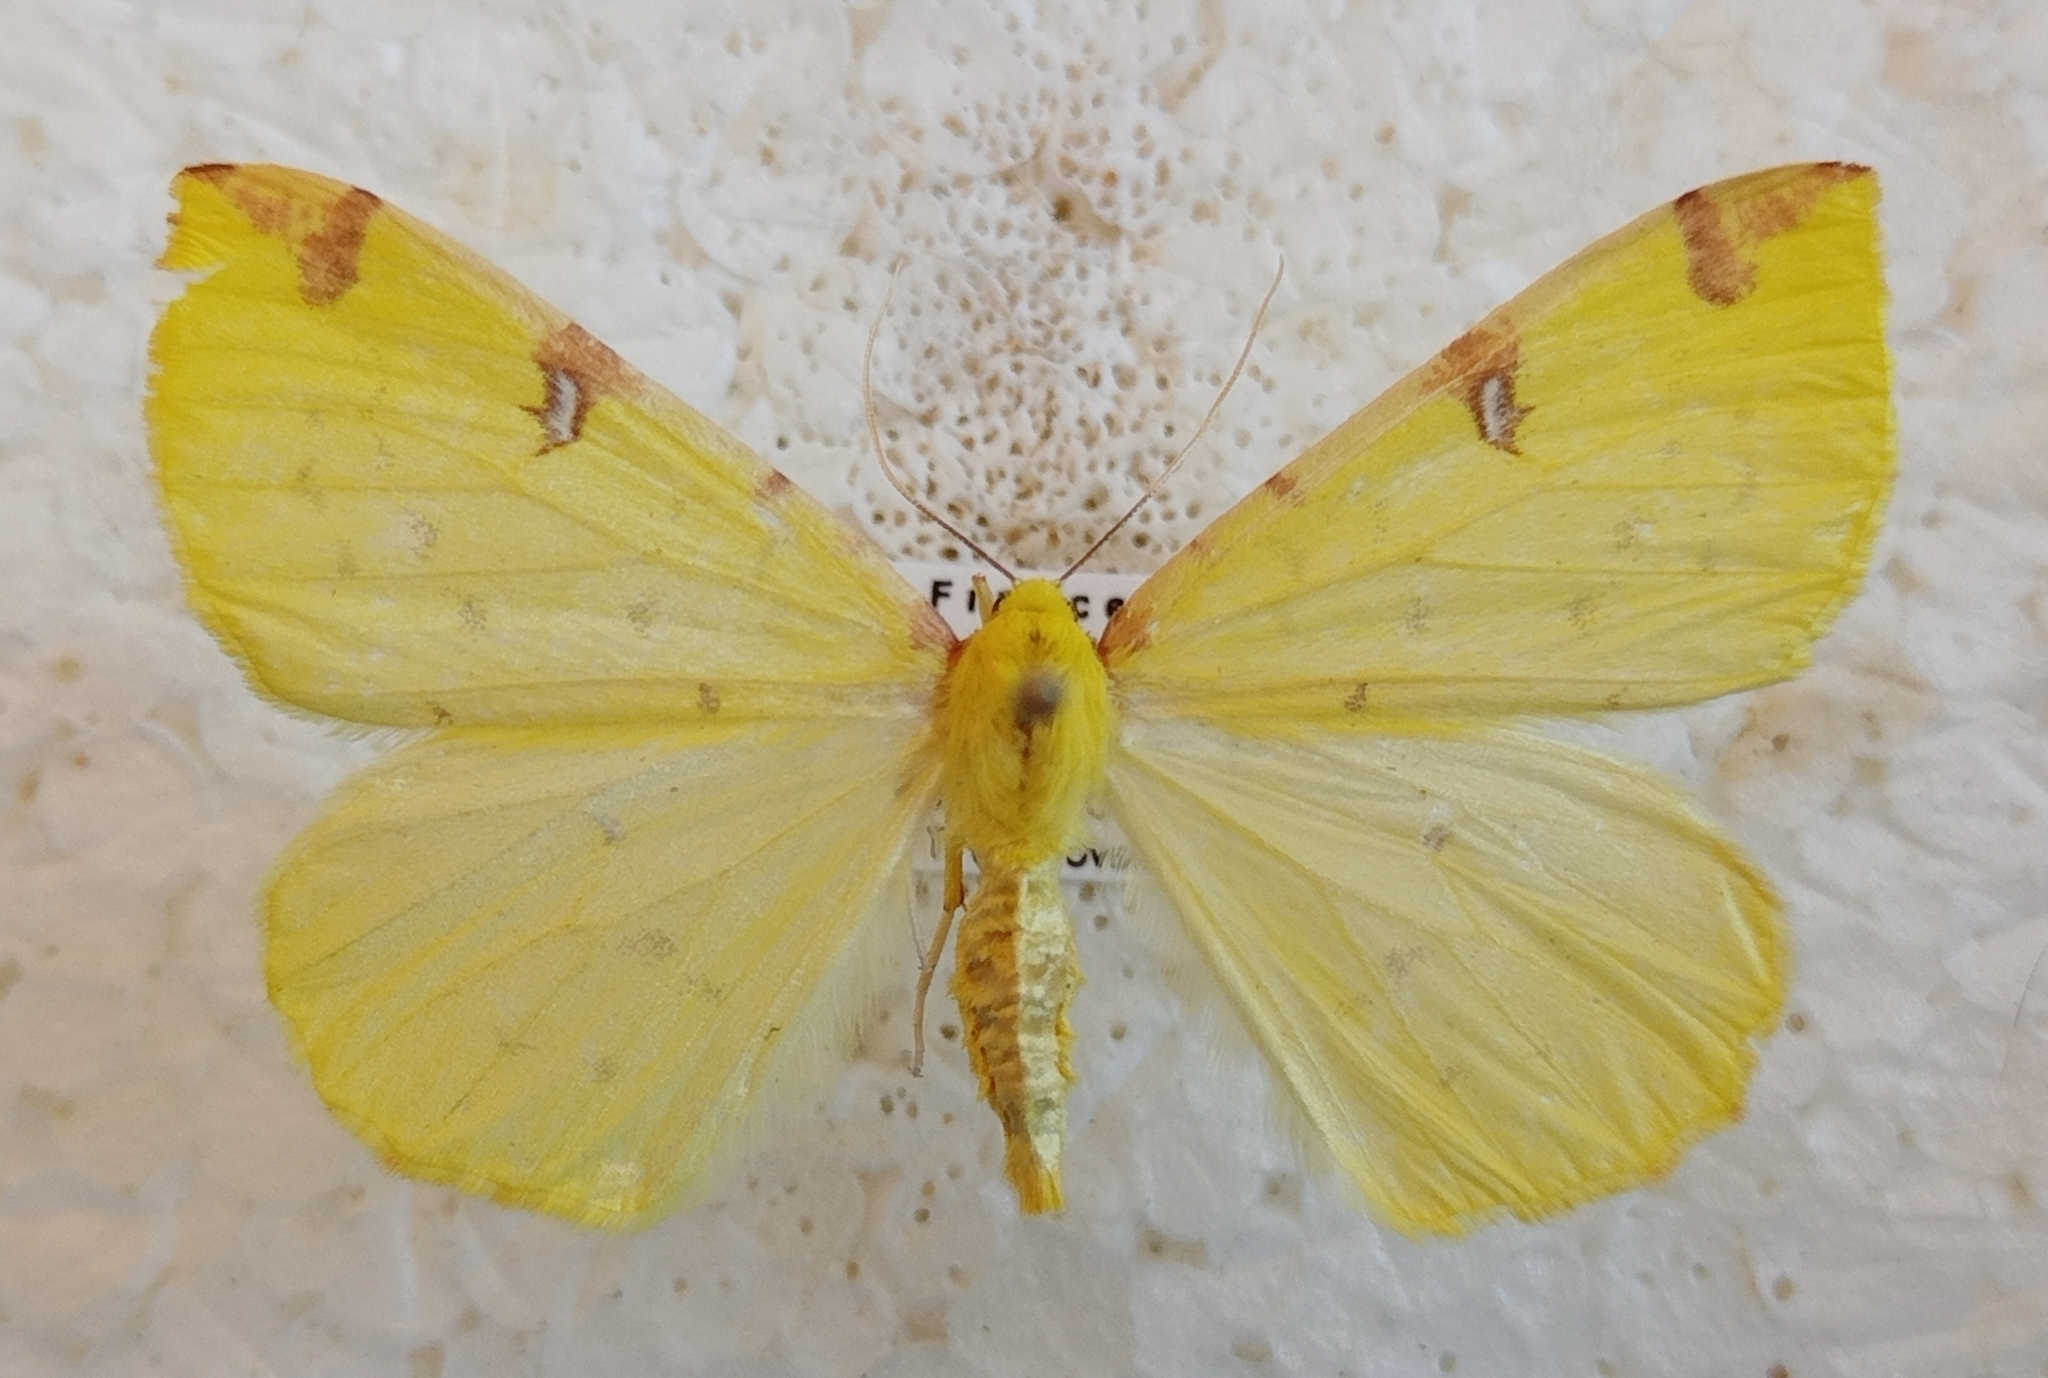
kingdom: Animalia
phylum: Arthropoda
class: Insecta
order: Lepidoptera
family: Geometridae
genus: Opisthograptis
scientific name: Opisthograptis luteolata
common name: Brimstone moth
